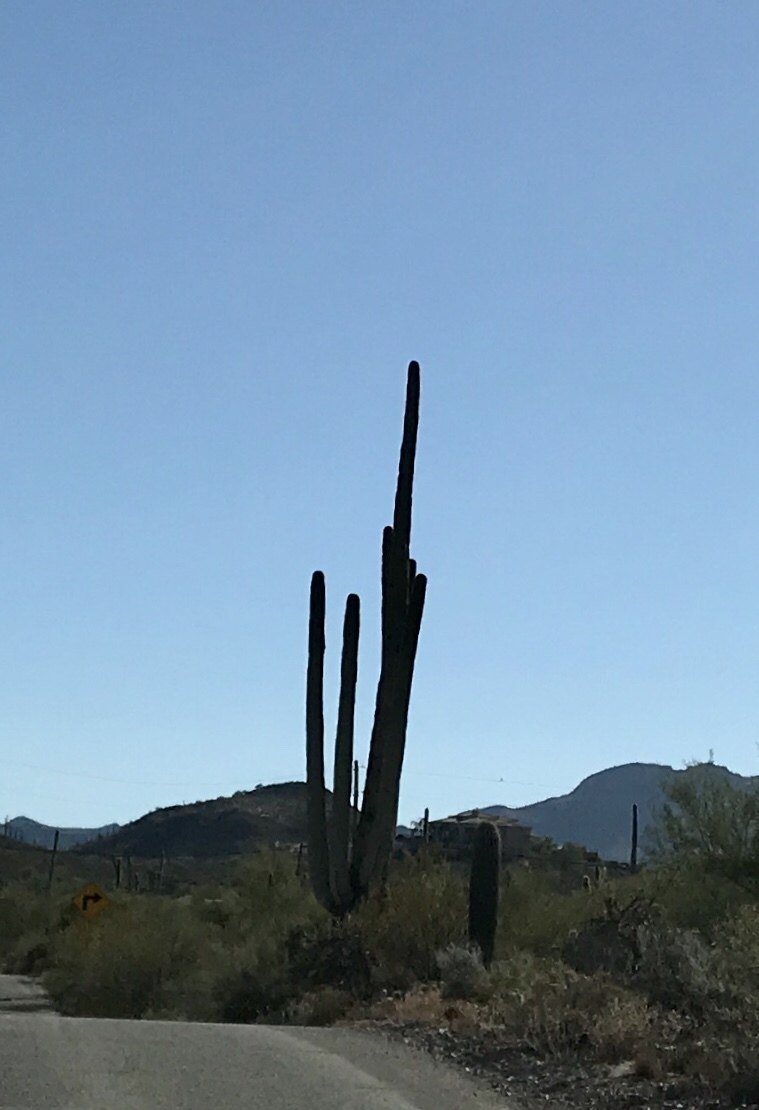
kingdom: Plantae
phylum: Tracheophyta
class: Magnoliopsida
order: Caryophyllales
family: Cactaceae
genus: Carnegiea
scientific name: Carnegiea gigantea
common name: Saguaro
